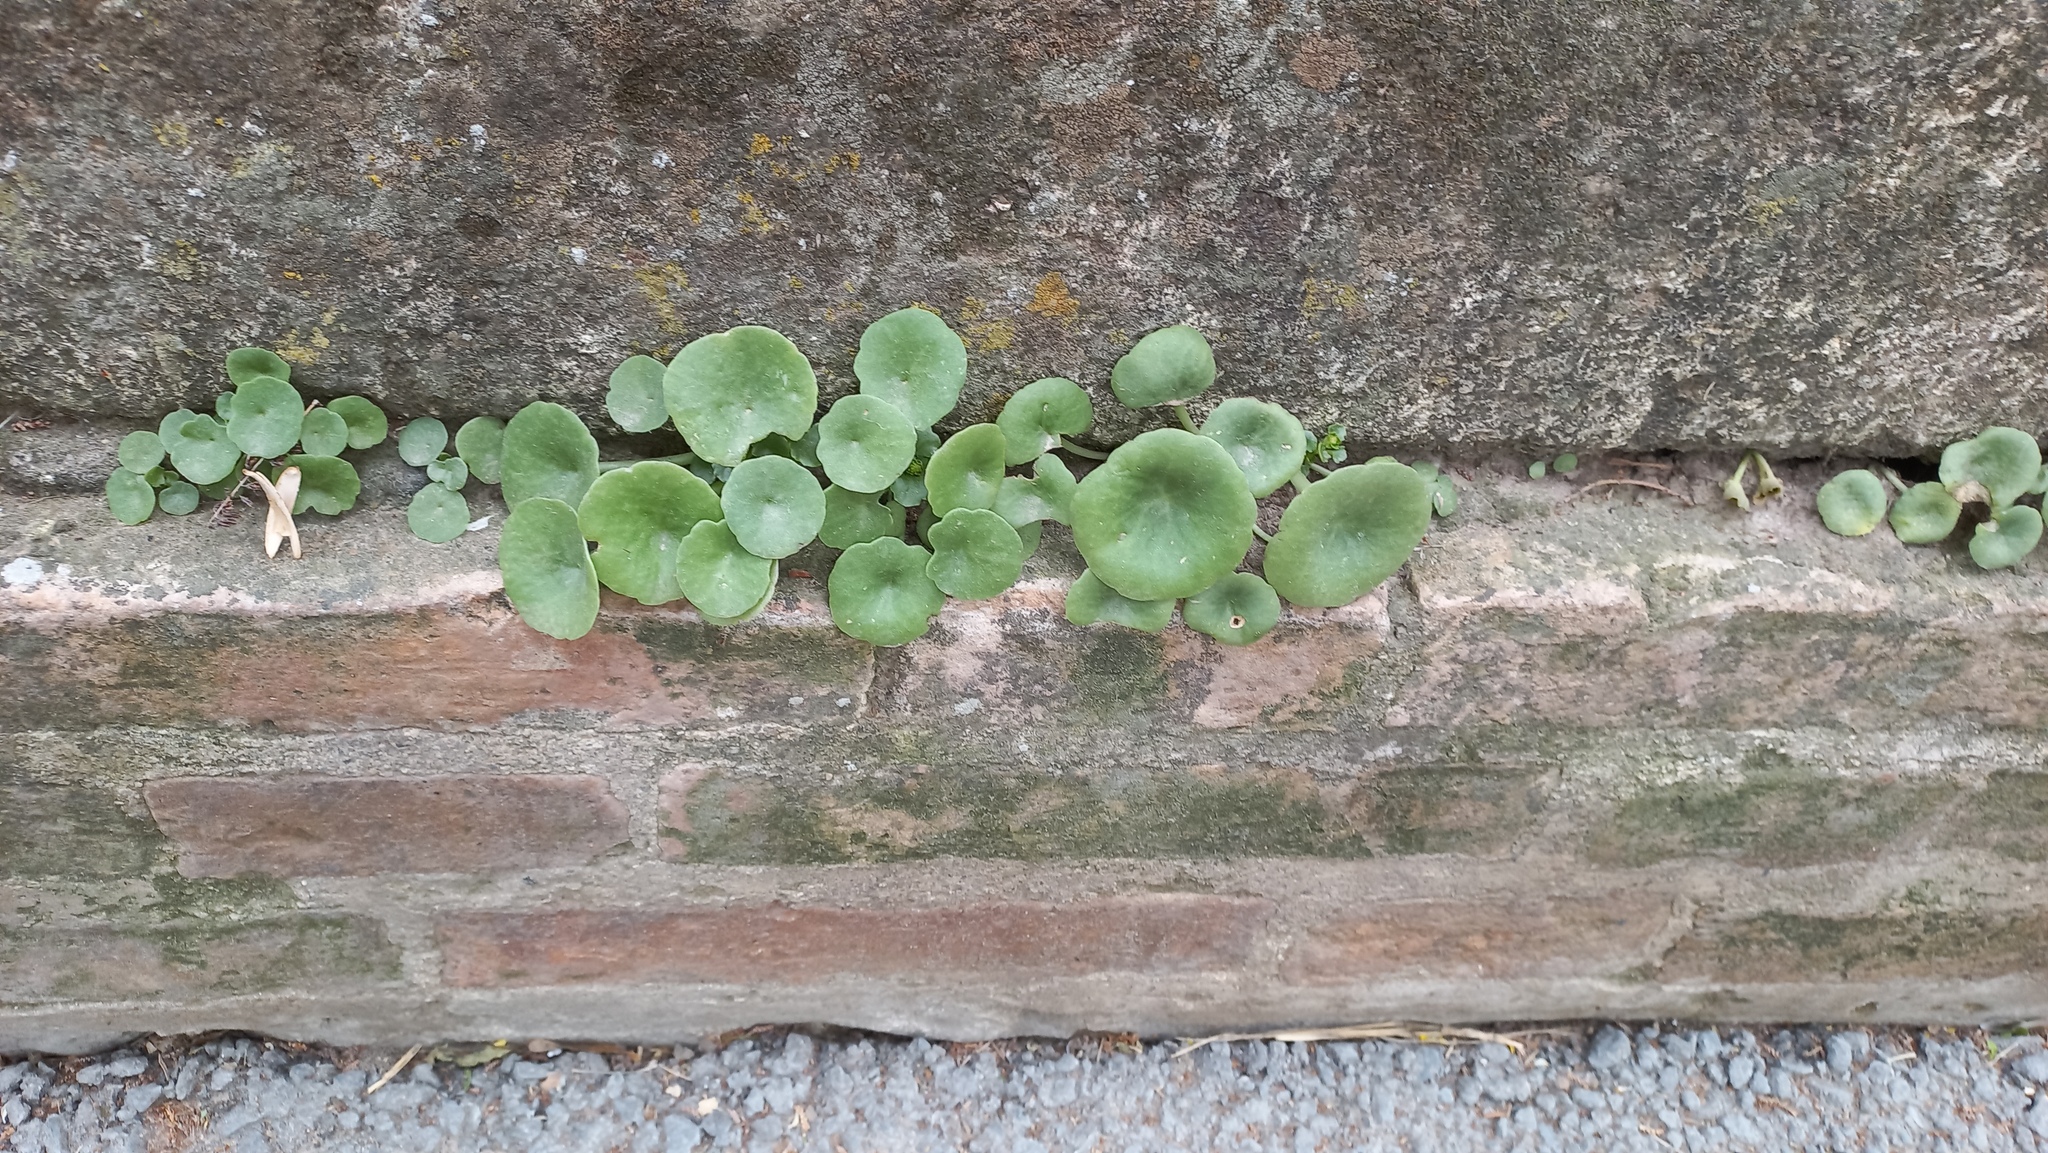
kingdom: Plantae
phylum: Tracheophyta
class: Magnoliopsida
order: Saxifragales
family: Crassulaceae
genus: Umbilicus
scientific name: Umbilicus rupestris
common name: Navelwort
